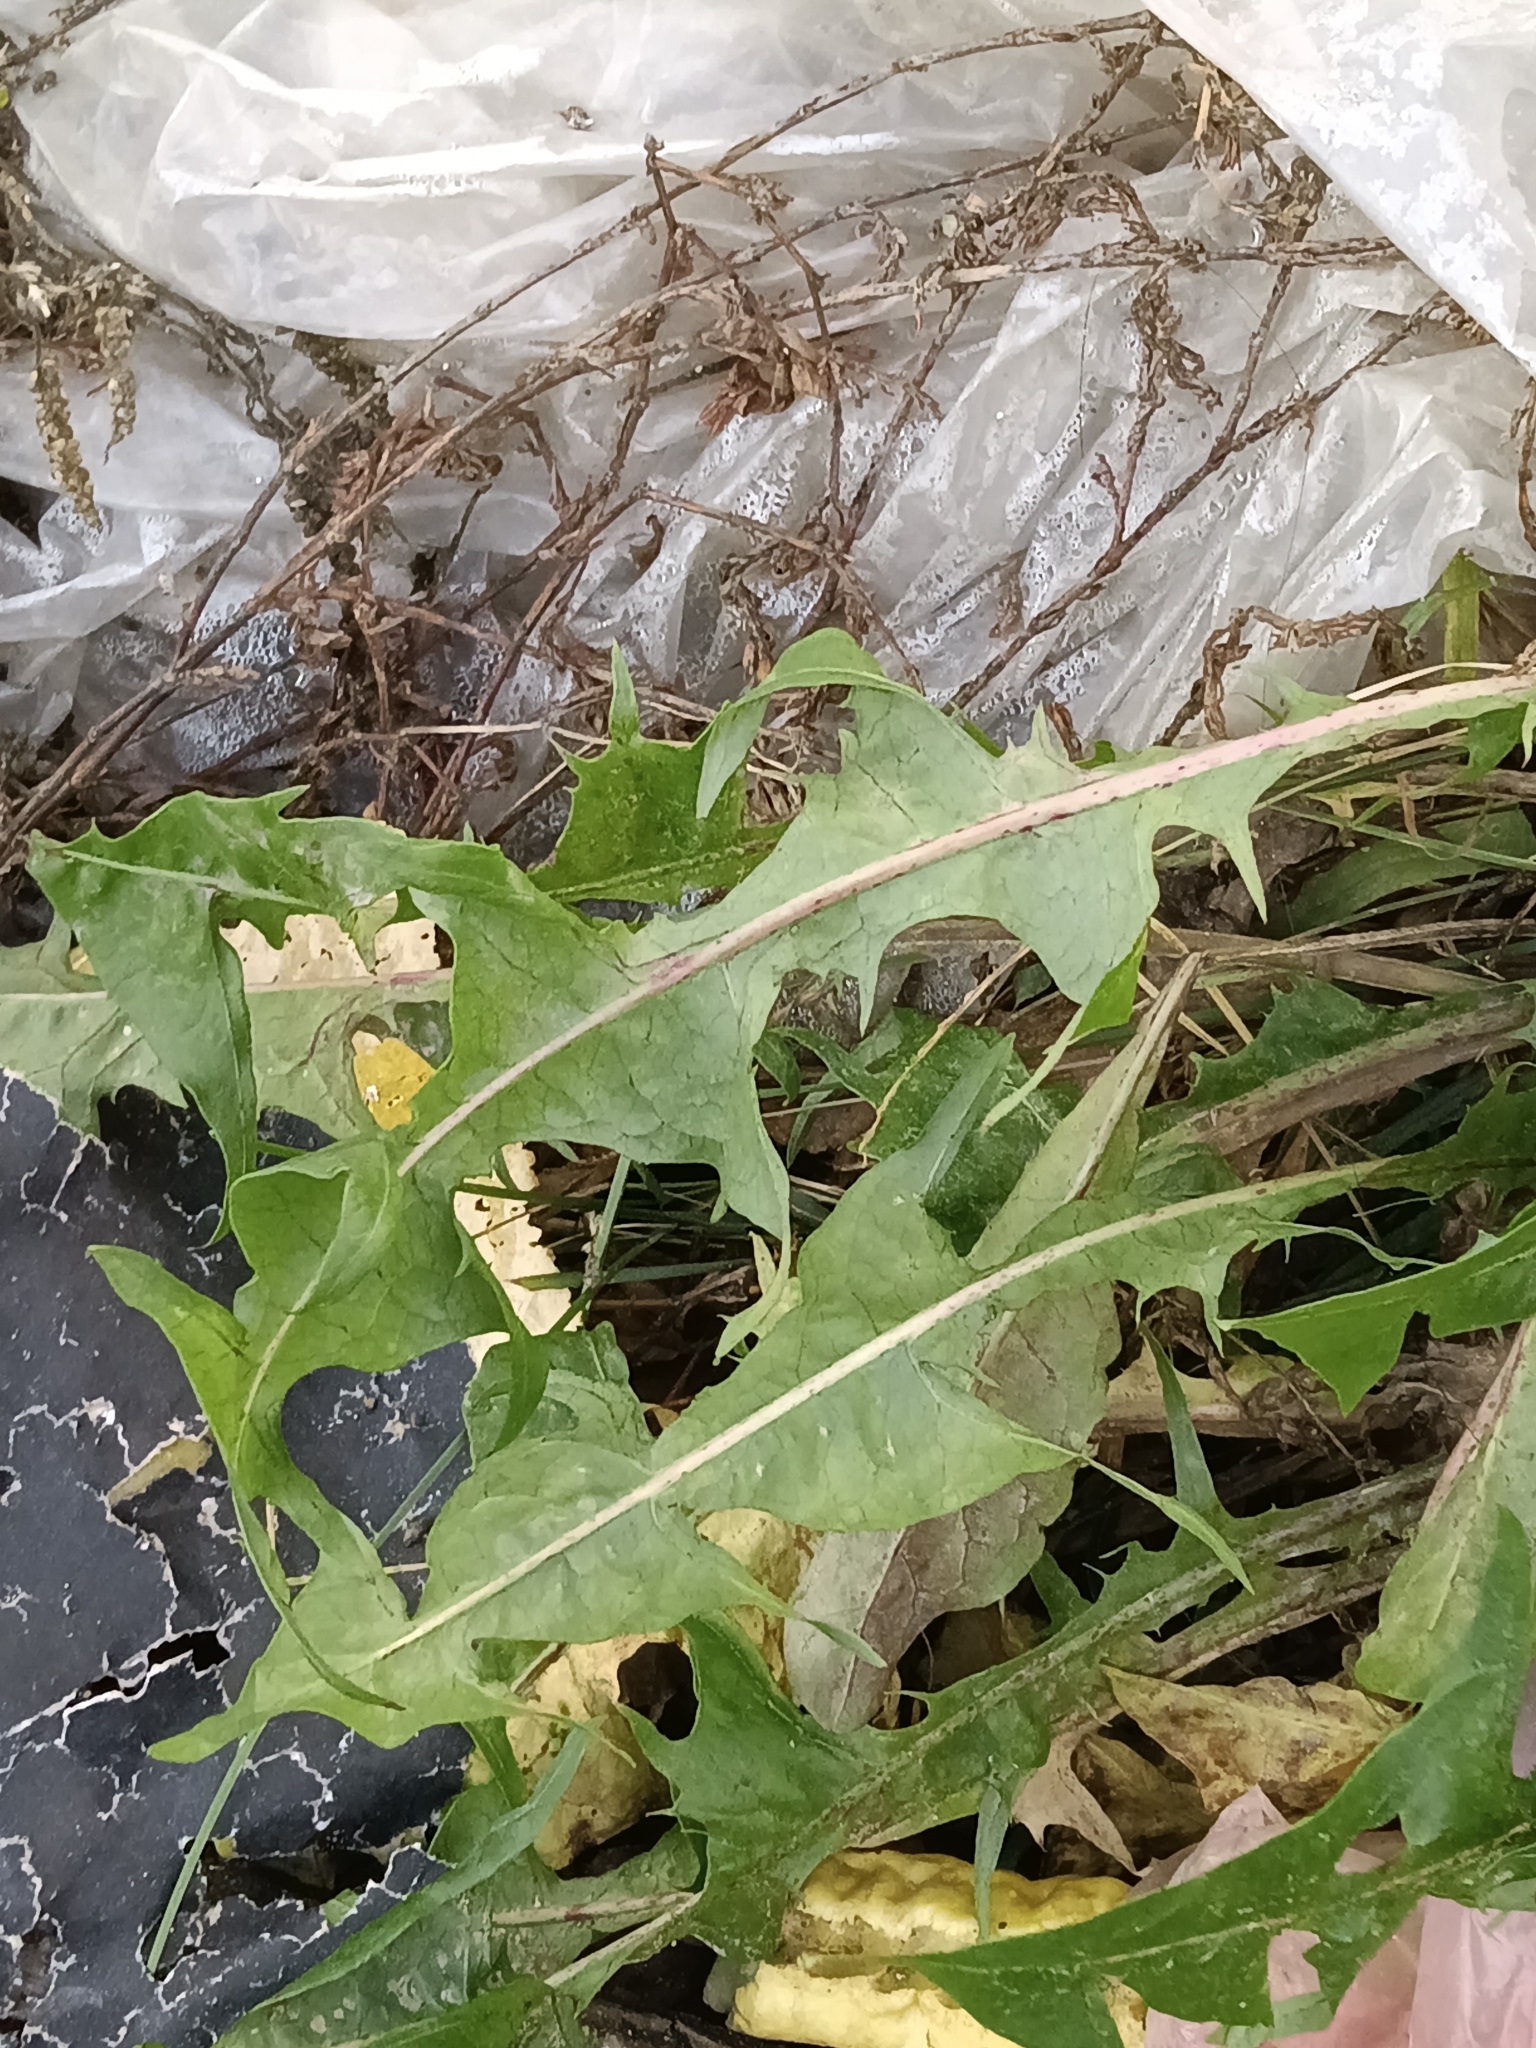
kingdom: Plantae
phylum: Tracheophyta
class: Magnoliopsida
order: Asterales
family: Asteraceae
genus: Taraxacum
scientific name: Taraxacum
